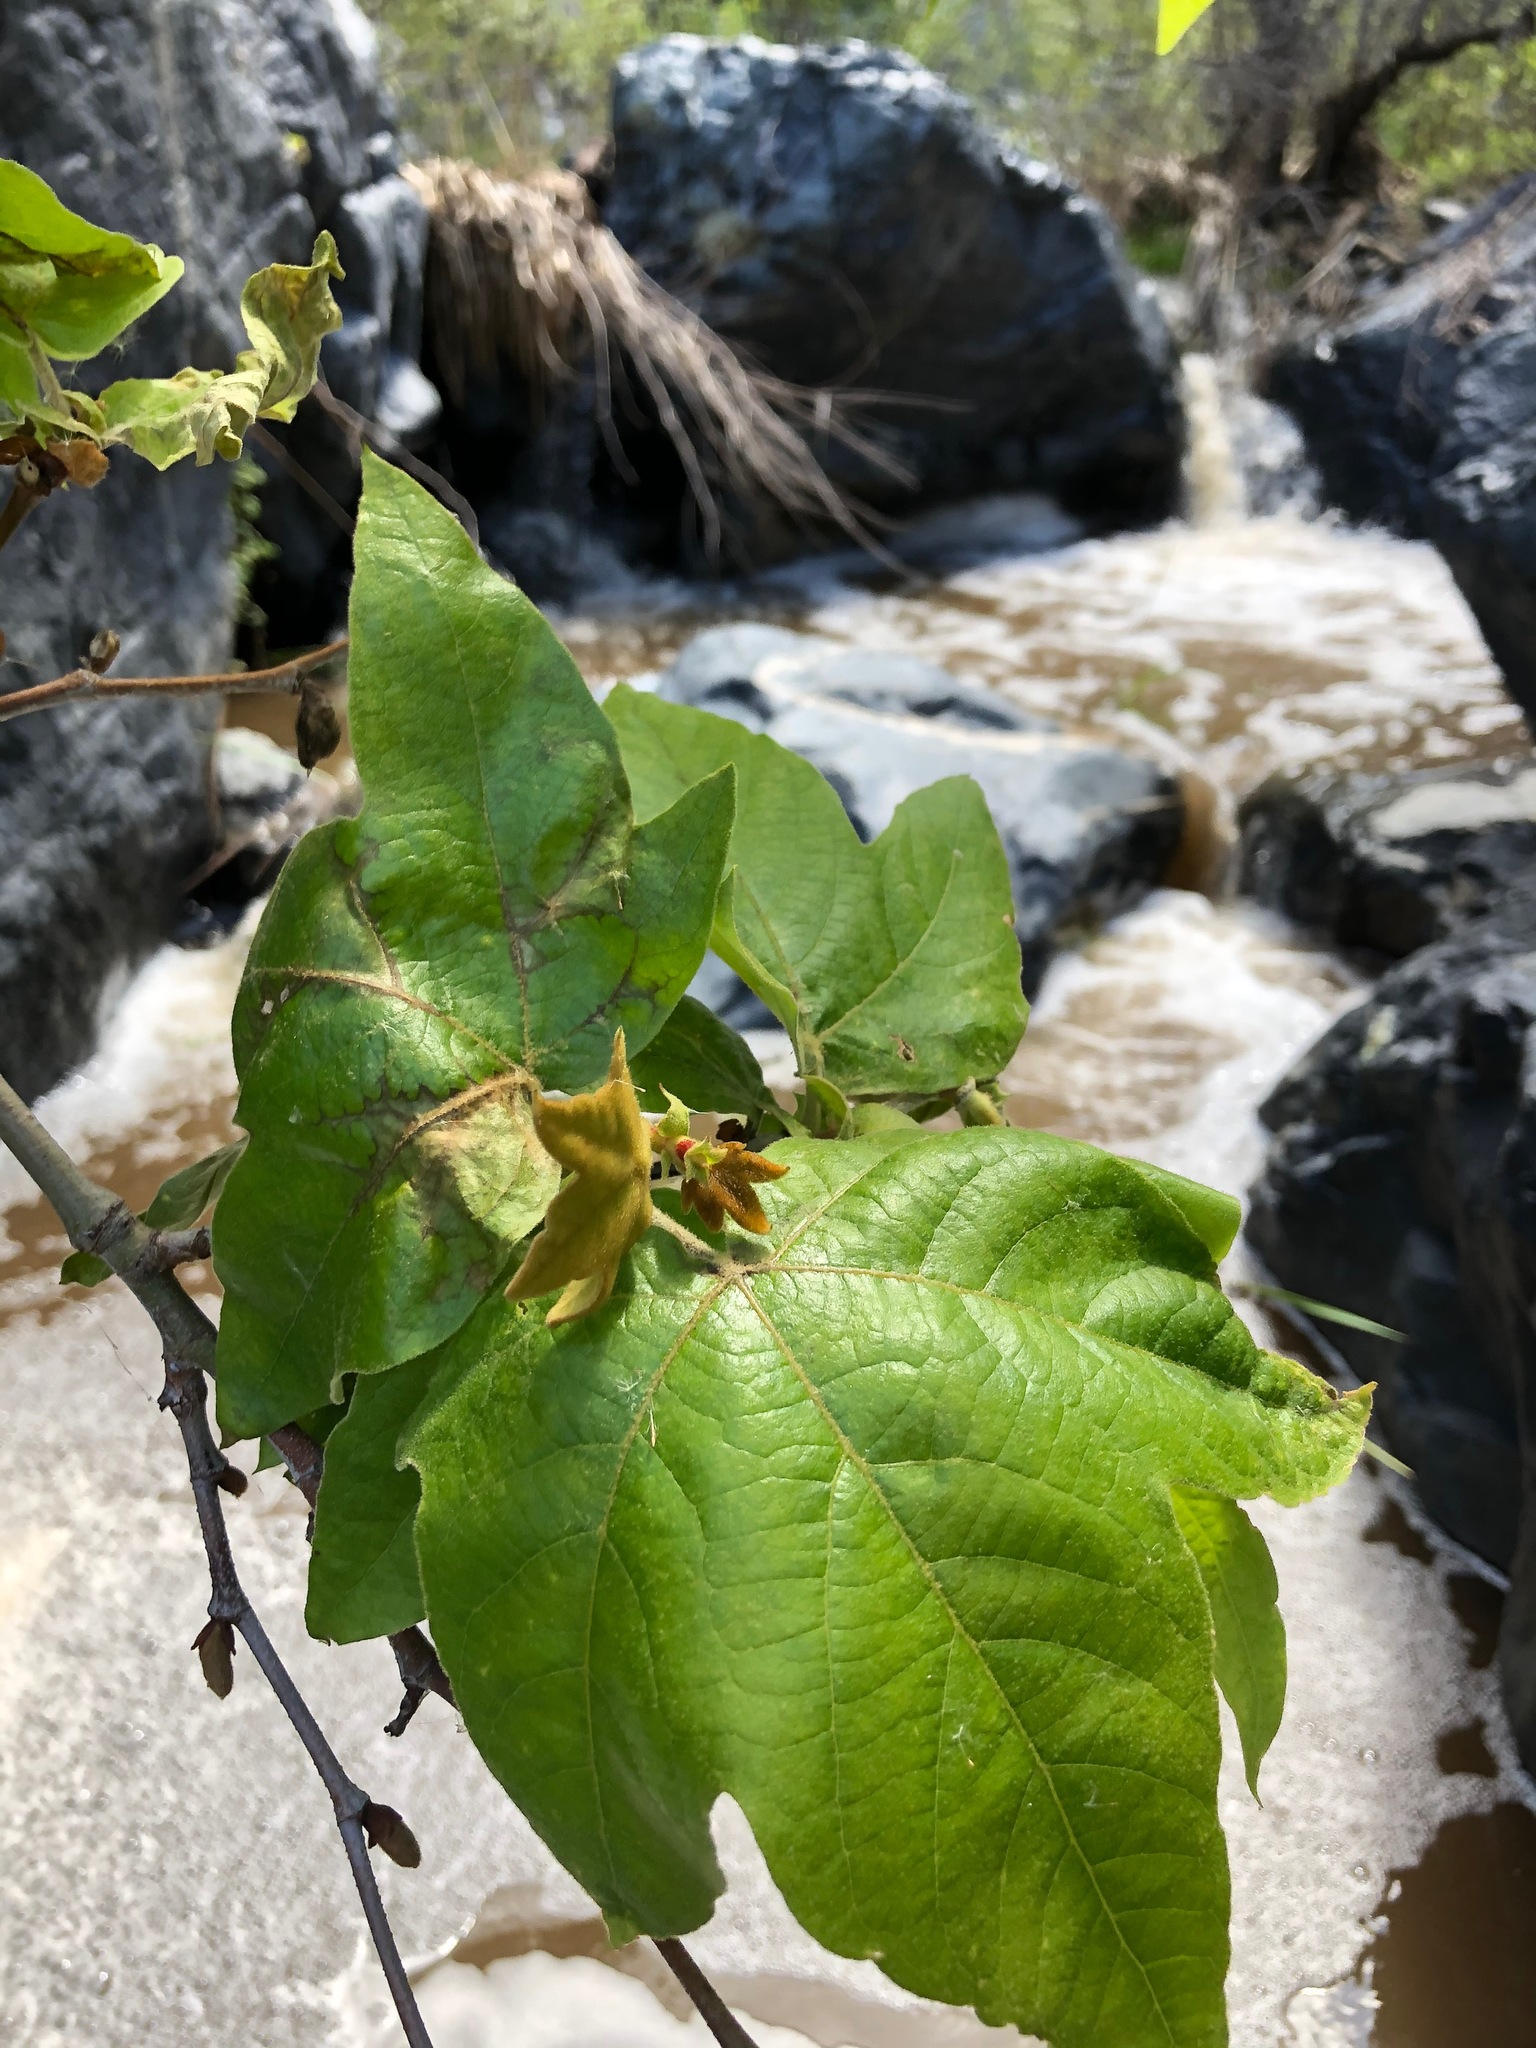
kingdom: Plantae
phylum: Tracheophyta
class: Magnoliopsida
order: Proteales
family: Platanaceae
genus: Platanus
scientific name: Platanus racemosa
